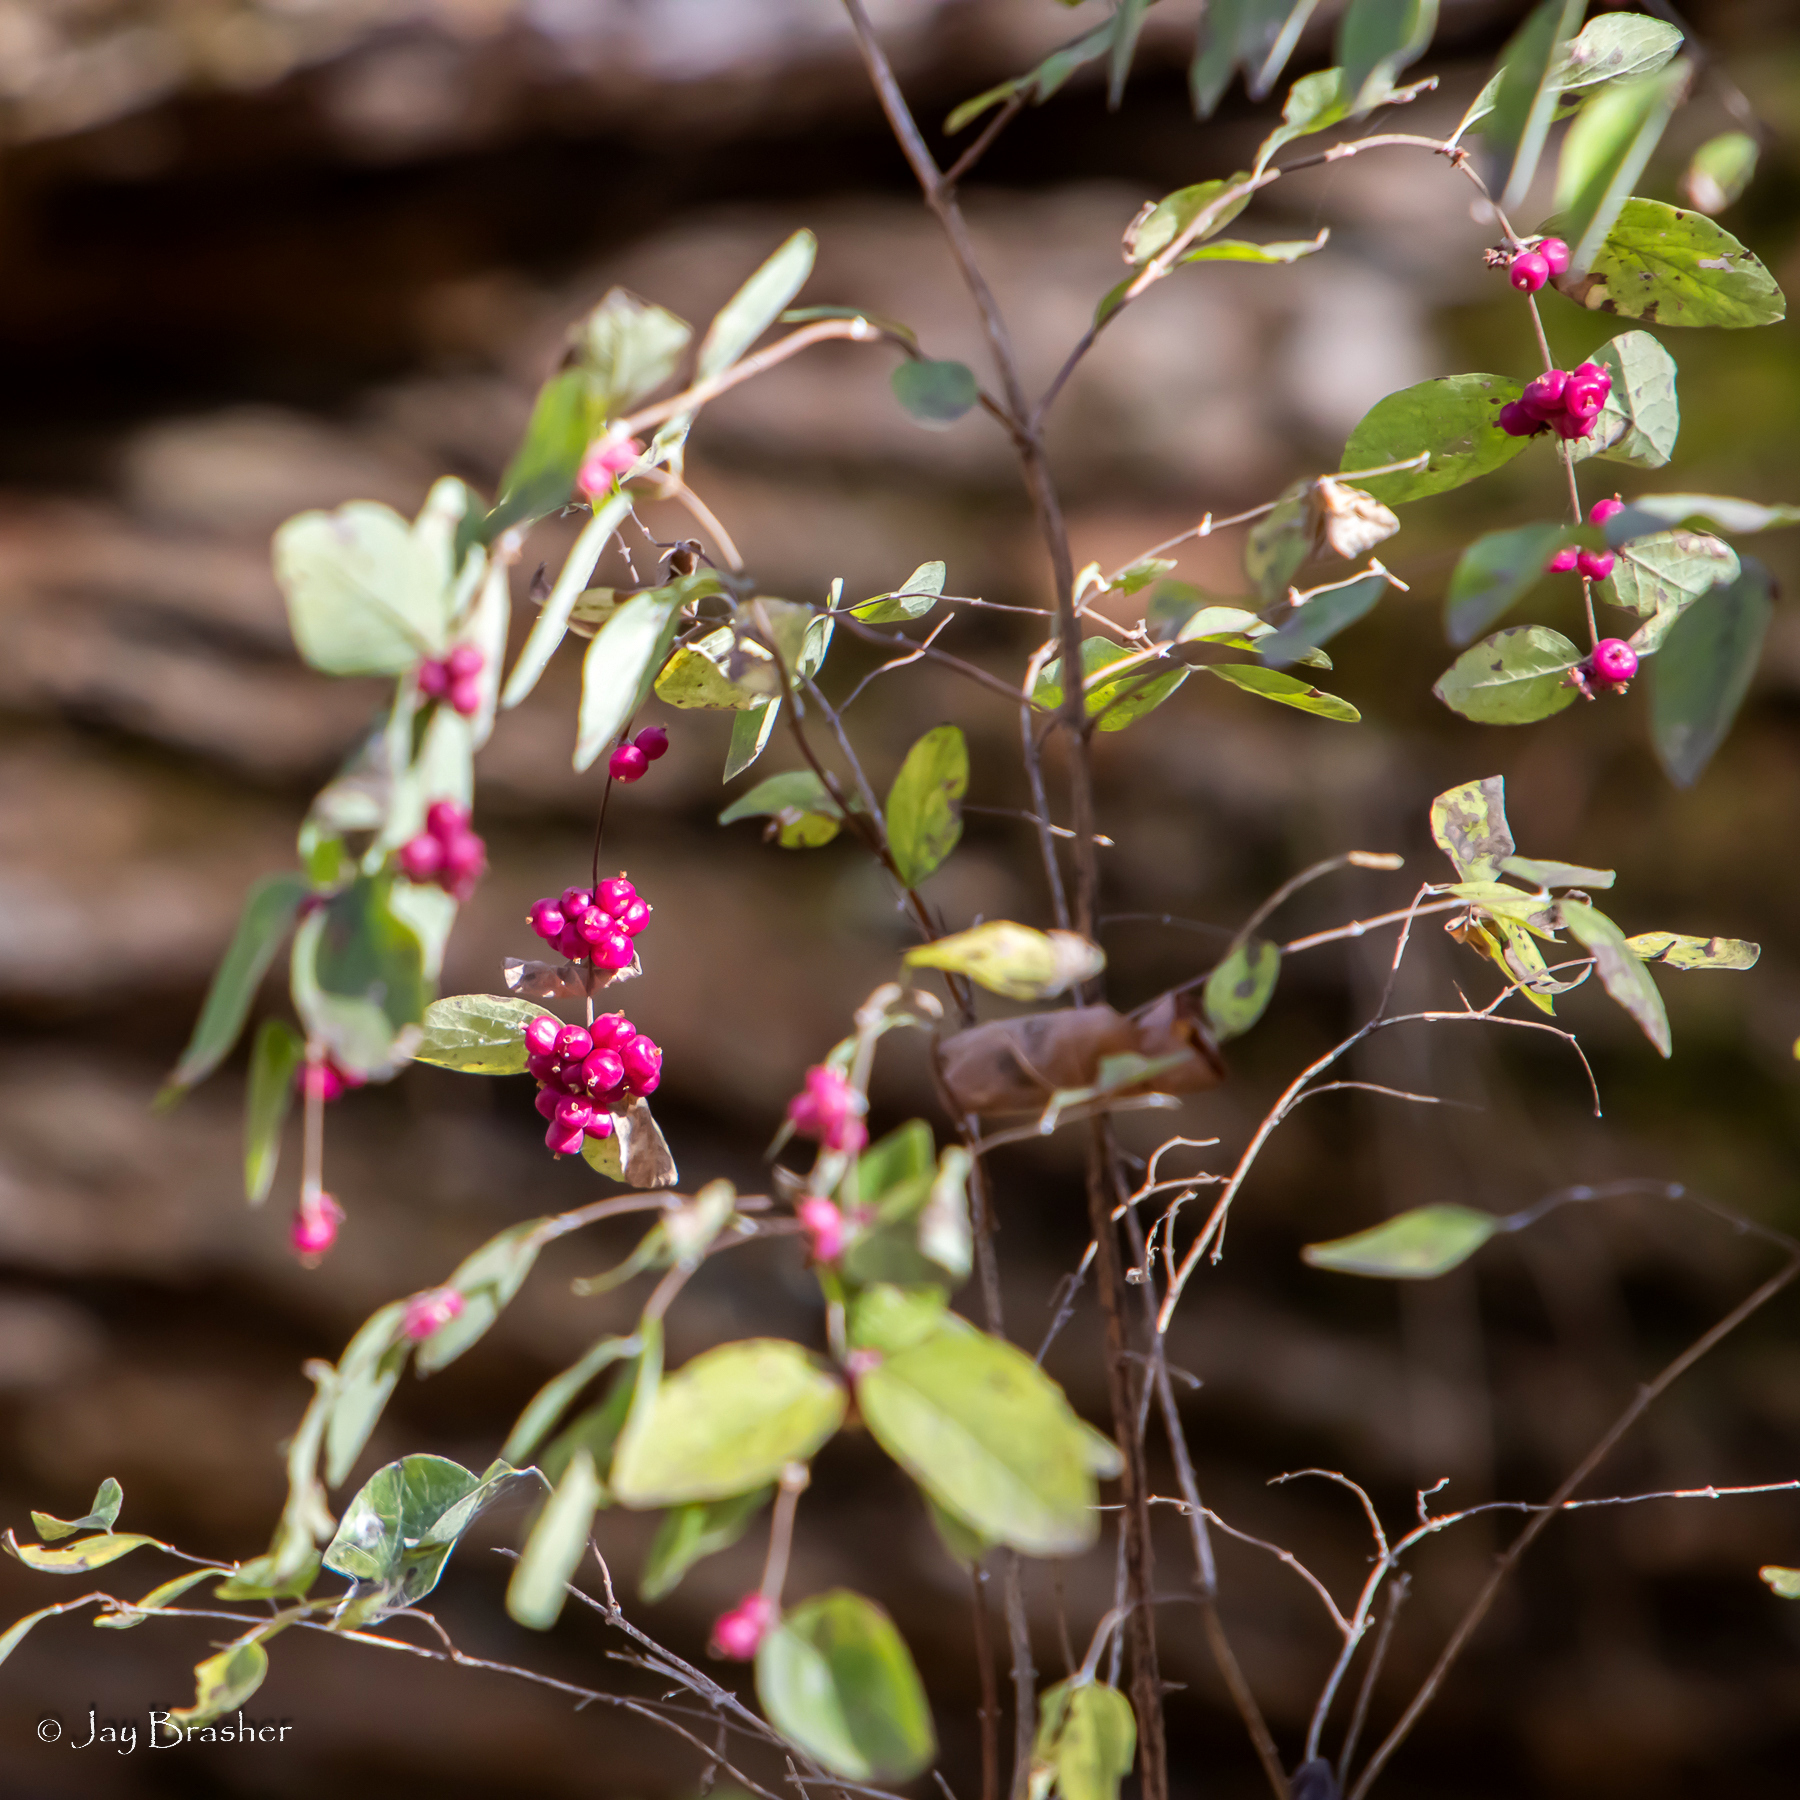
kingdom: Plantae
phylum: Tracheophyta
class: Magnoliopsida
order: Dipsacales
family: Caprifoliaceae
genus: Symphoricarpos
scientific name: Symphoricarpos orbiculatus
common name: Coralberry
